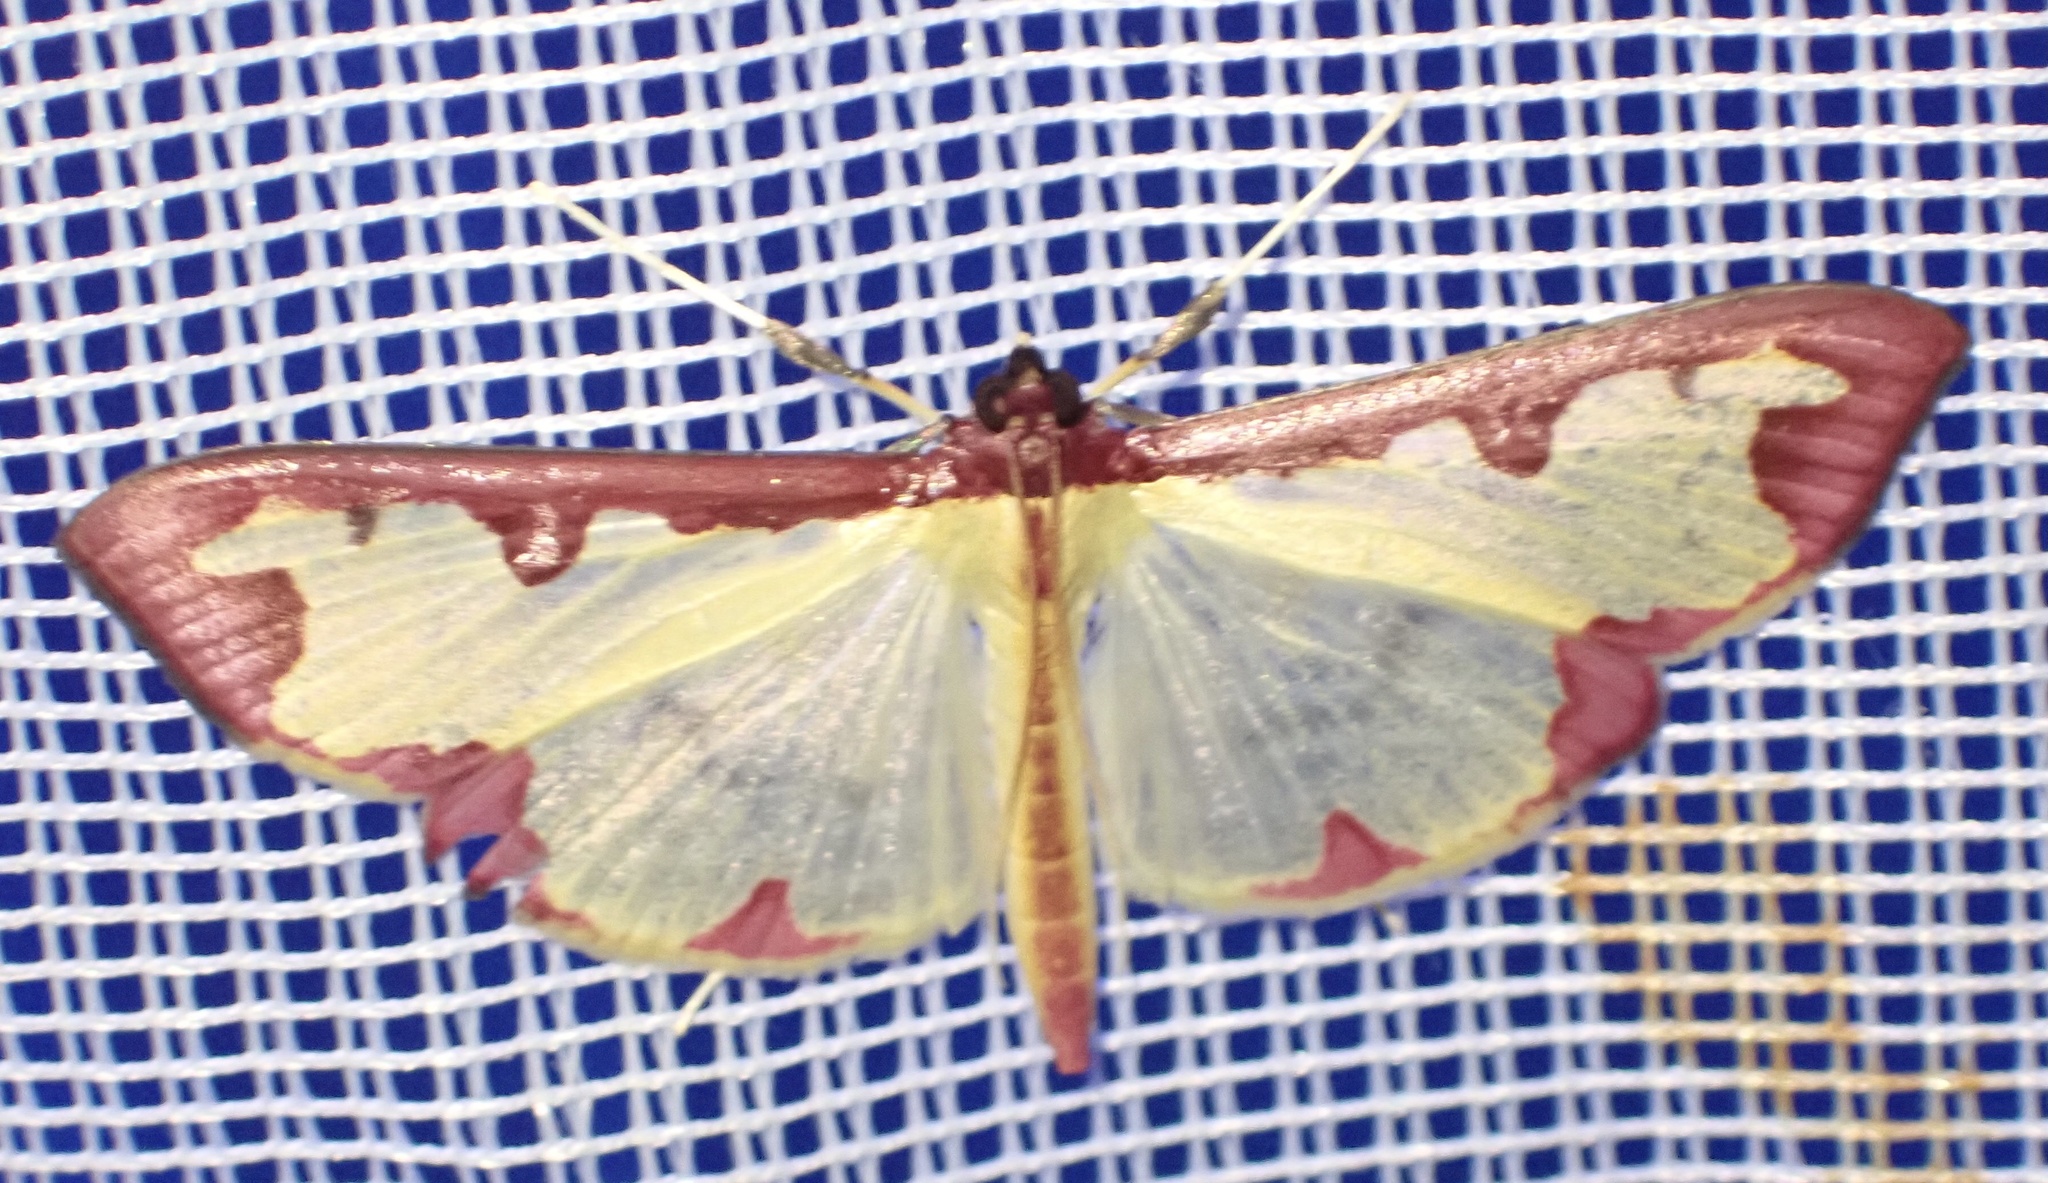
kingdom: Animalia
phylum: Arthropoda
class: Insecta
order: Lepidoptera
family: Crambidae
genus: Cadarena
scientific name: Cadarena pudoraria
